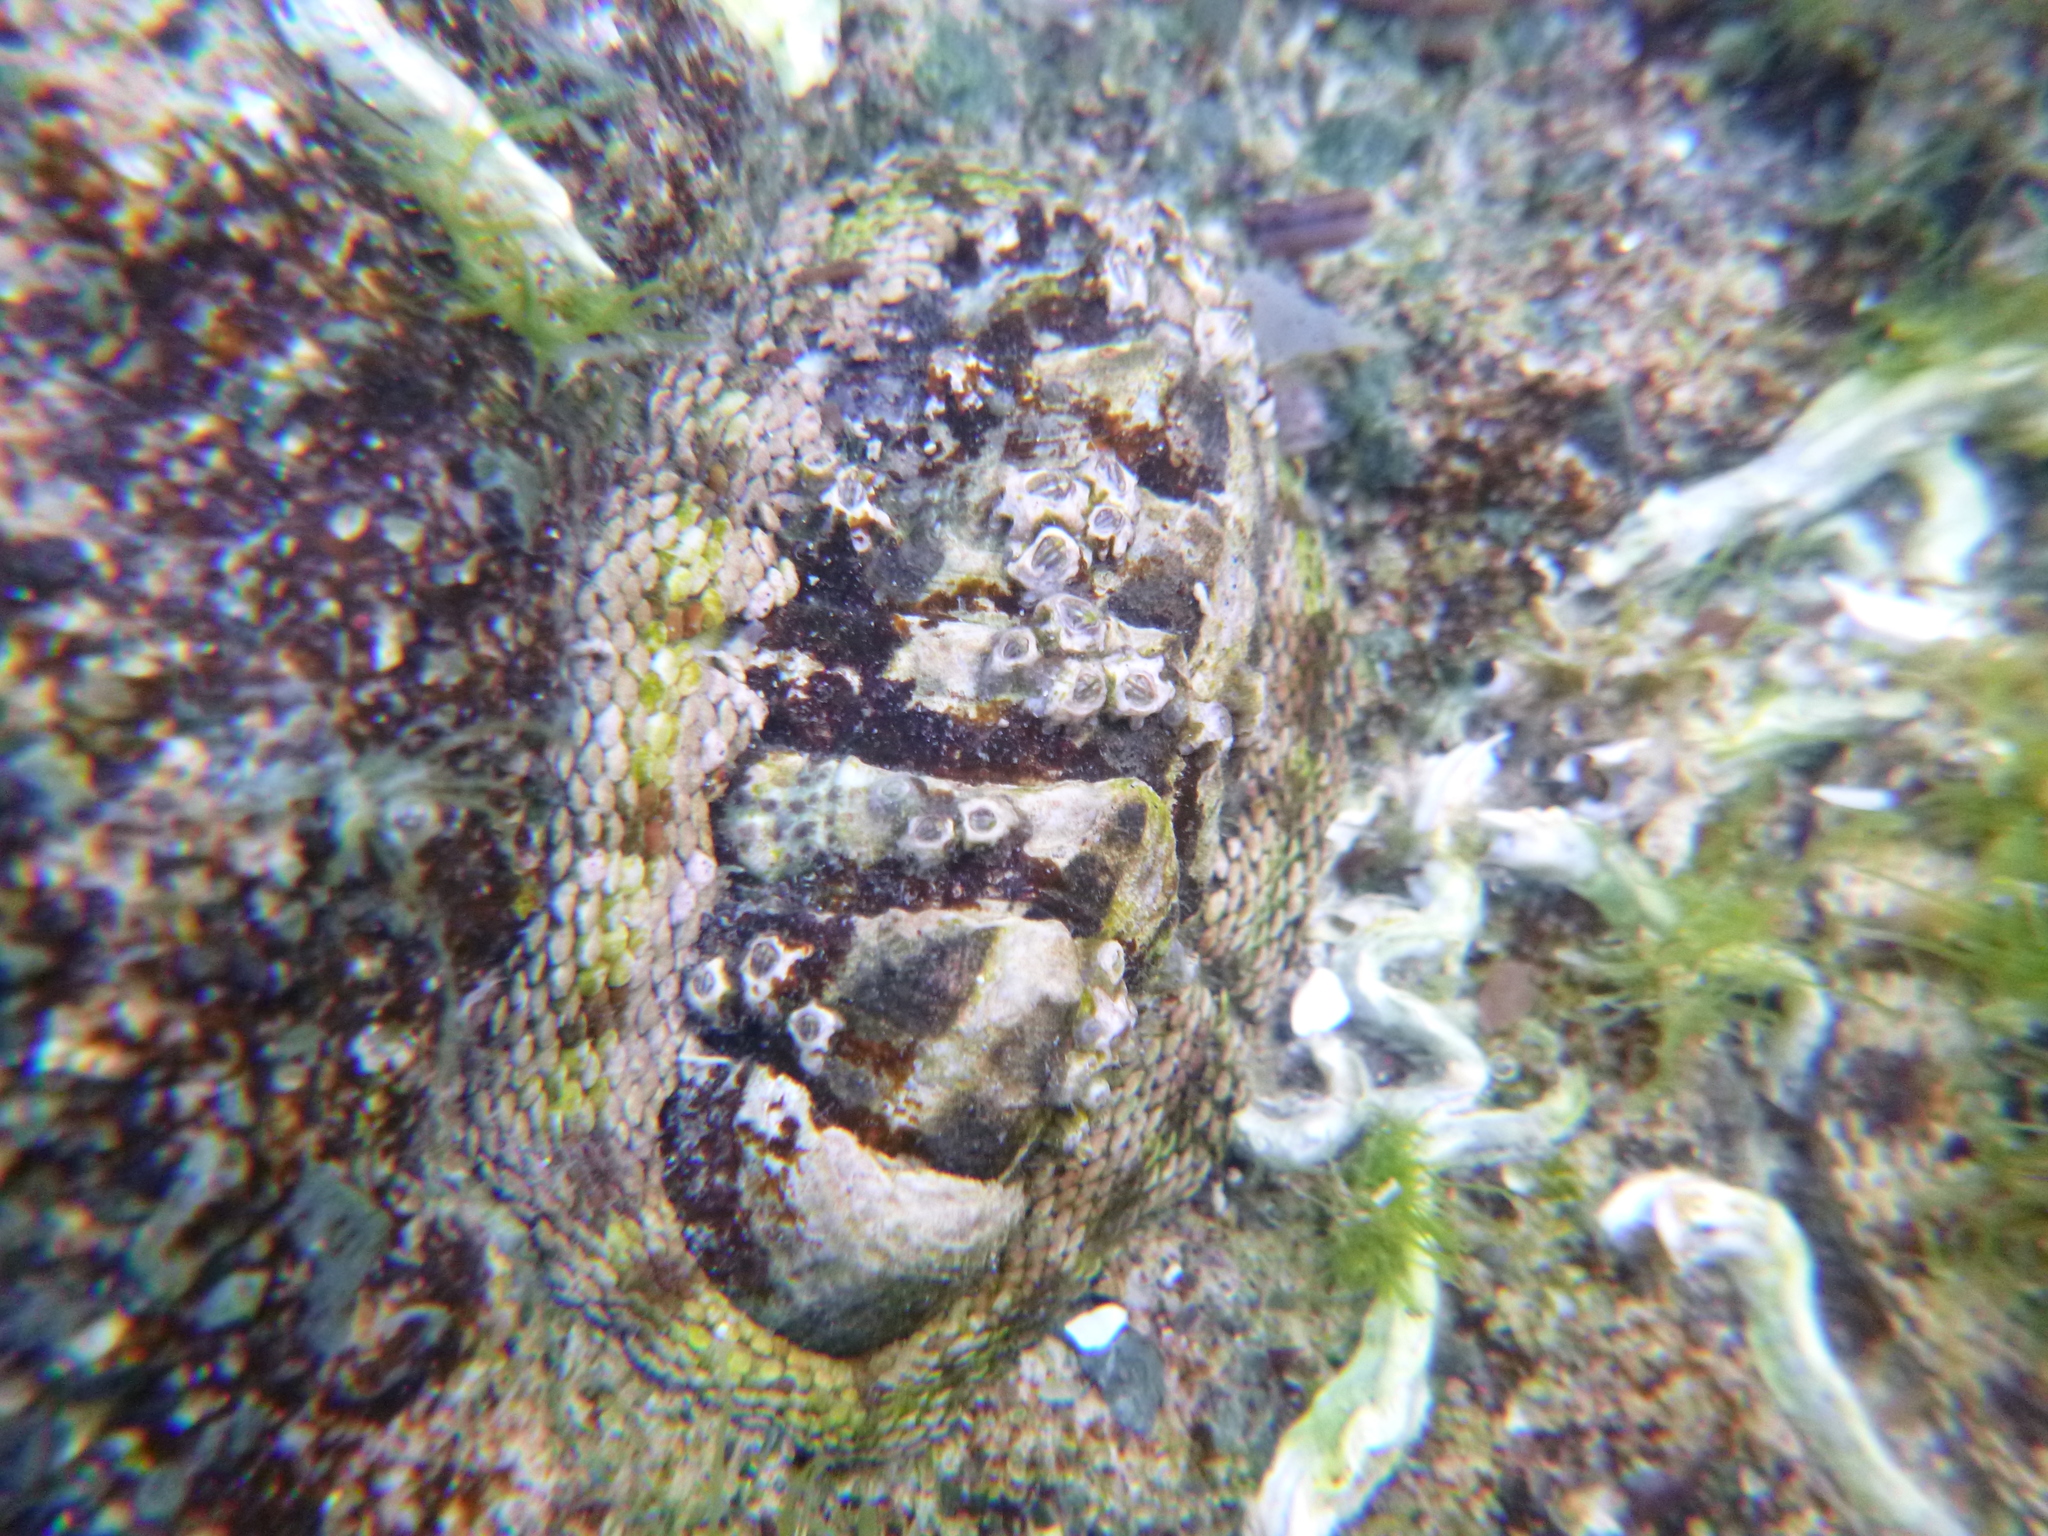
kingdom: Animalia
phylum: Mollusca
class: Polyplacophora
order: Chitonida
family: Chitonidae
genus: Sypharochiton
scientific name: Sypharochiton pelliserpentis
